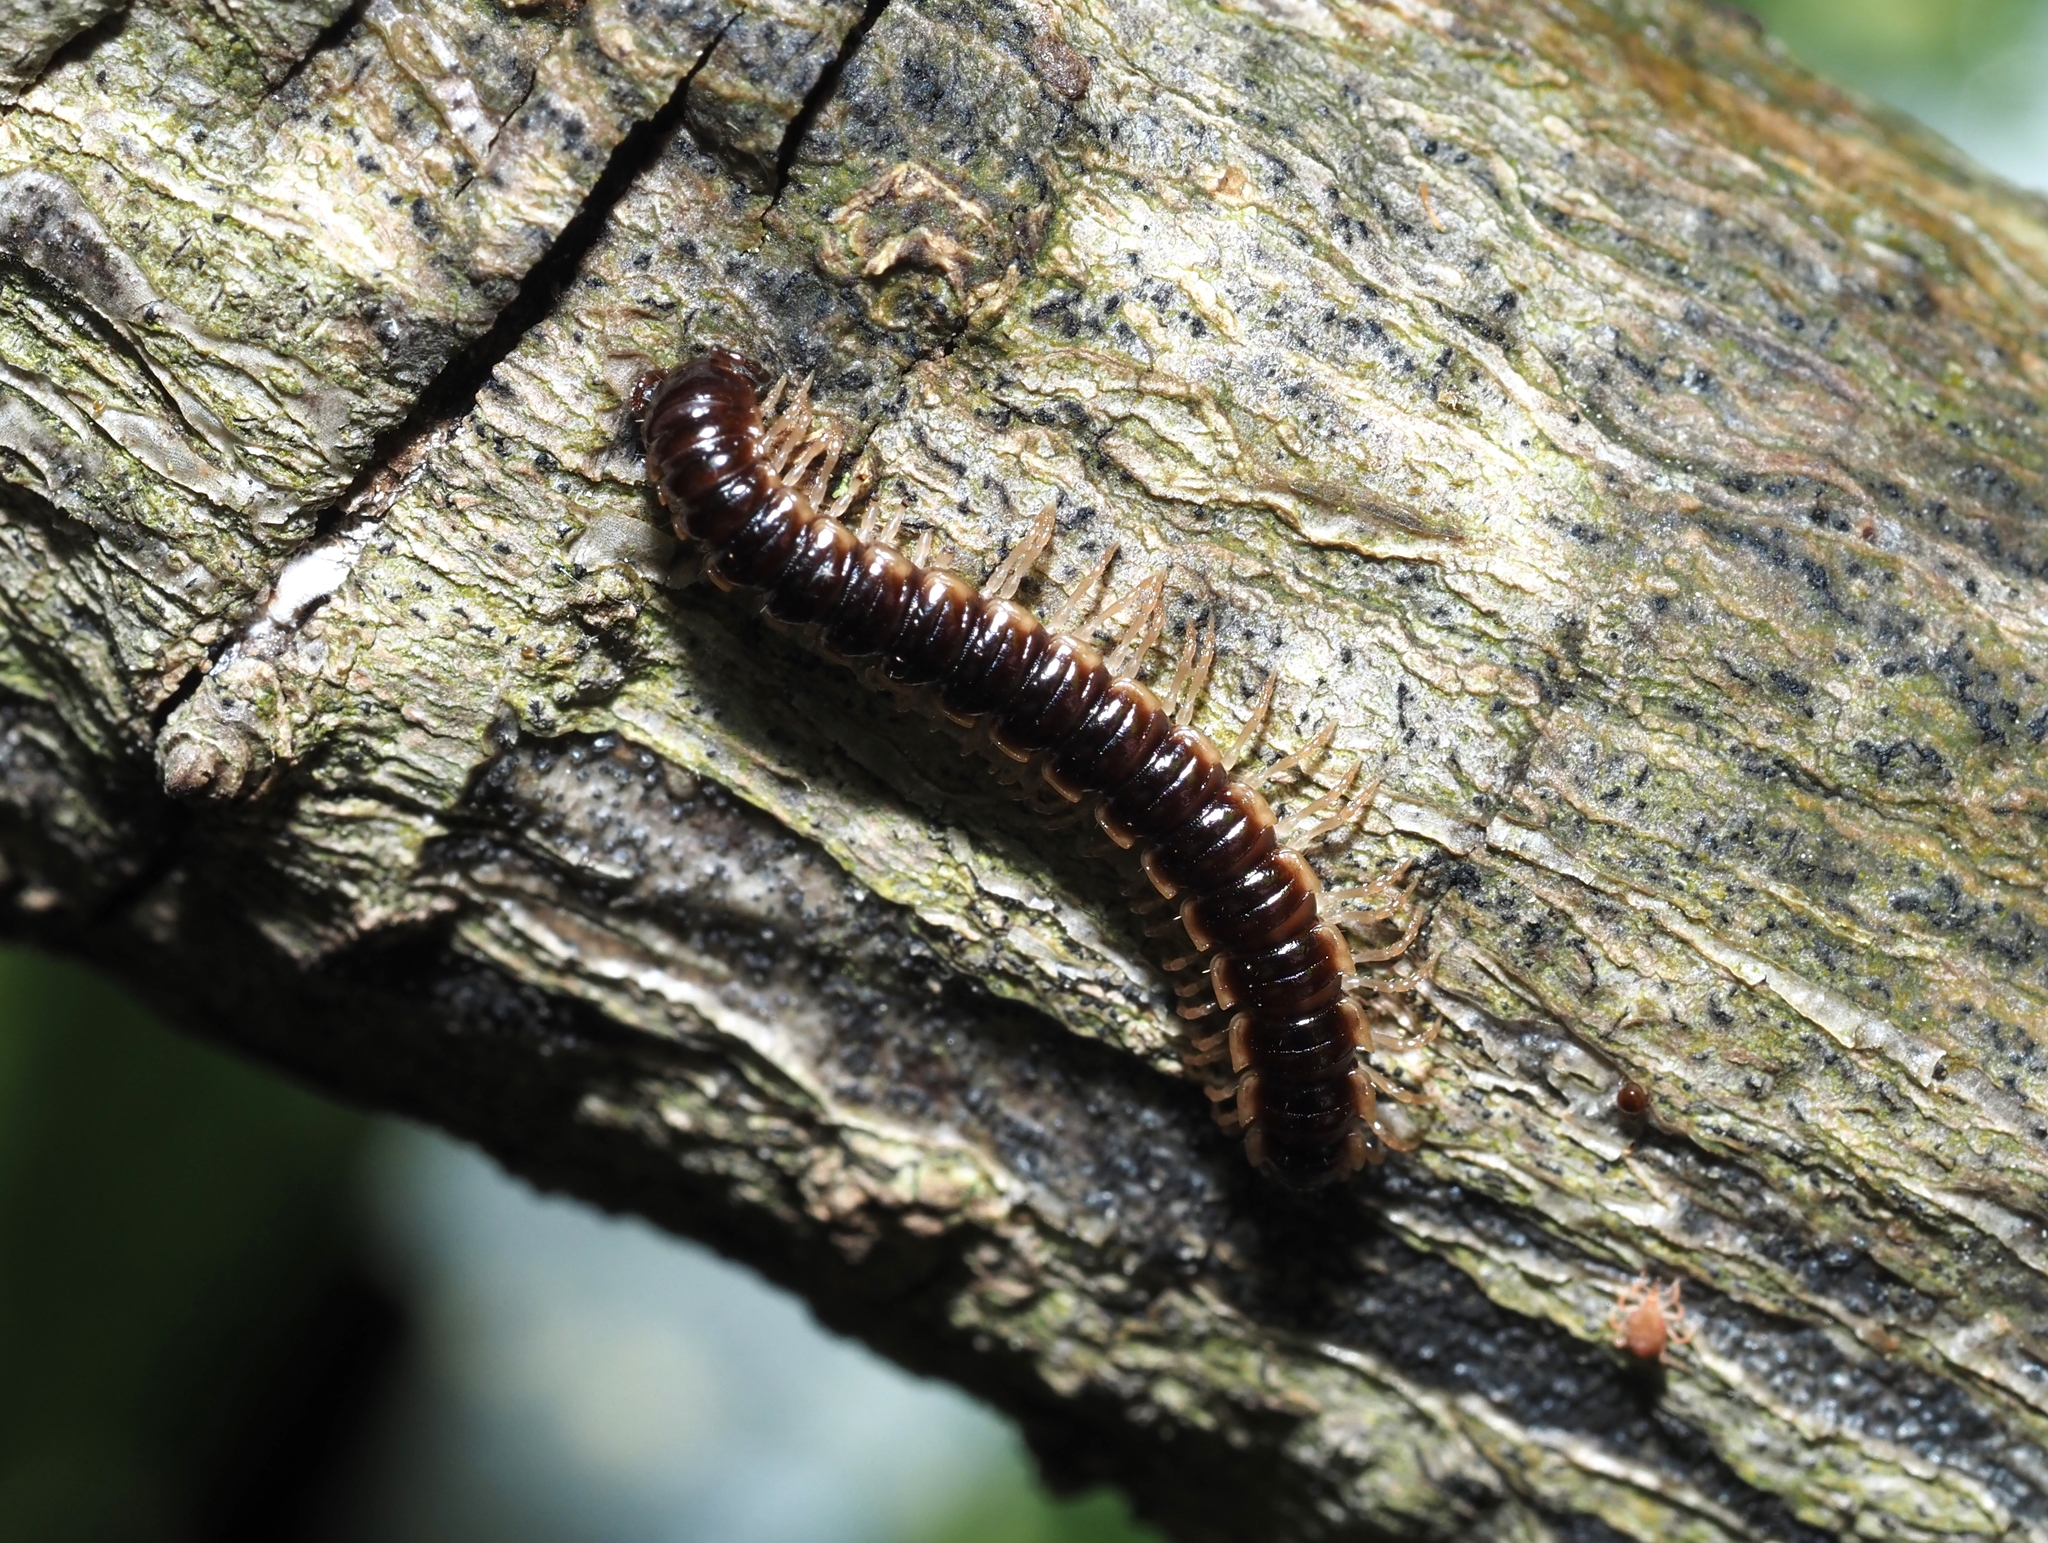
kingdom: Animalia
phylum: Arthropoda
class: Diplopoda
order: Polydesmida
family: Paradoxosomatidae
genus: Oxidus
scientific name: Oxidus gracilis
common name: Greenhouse millipede
